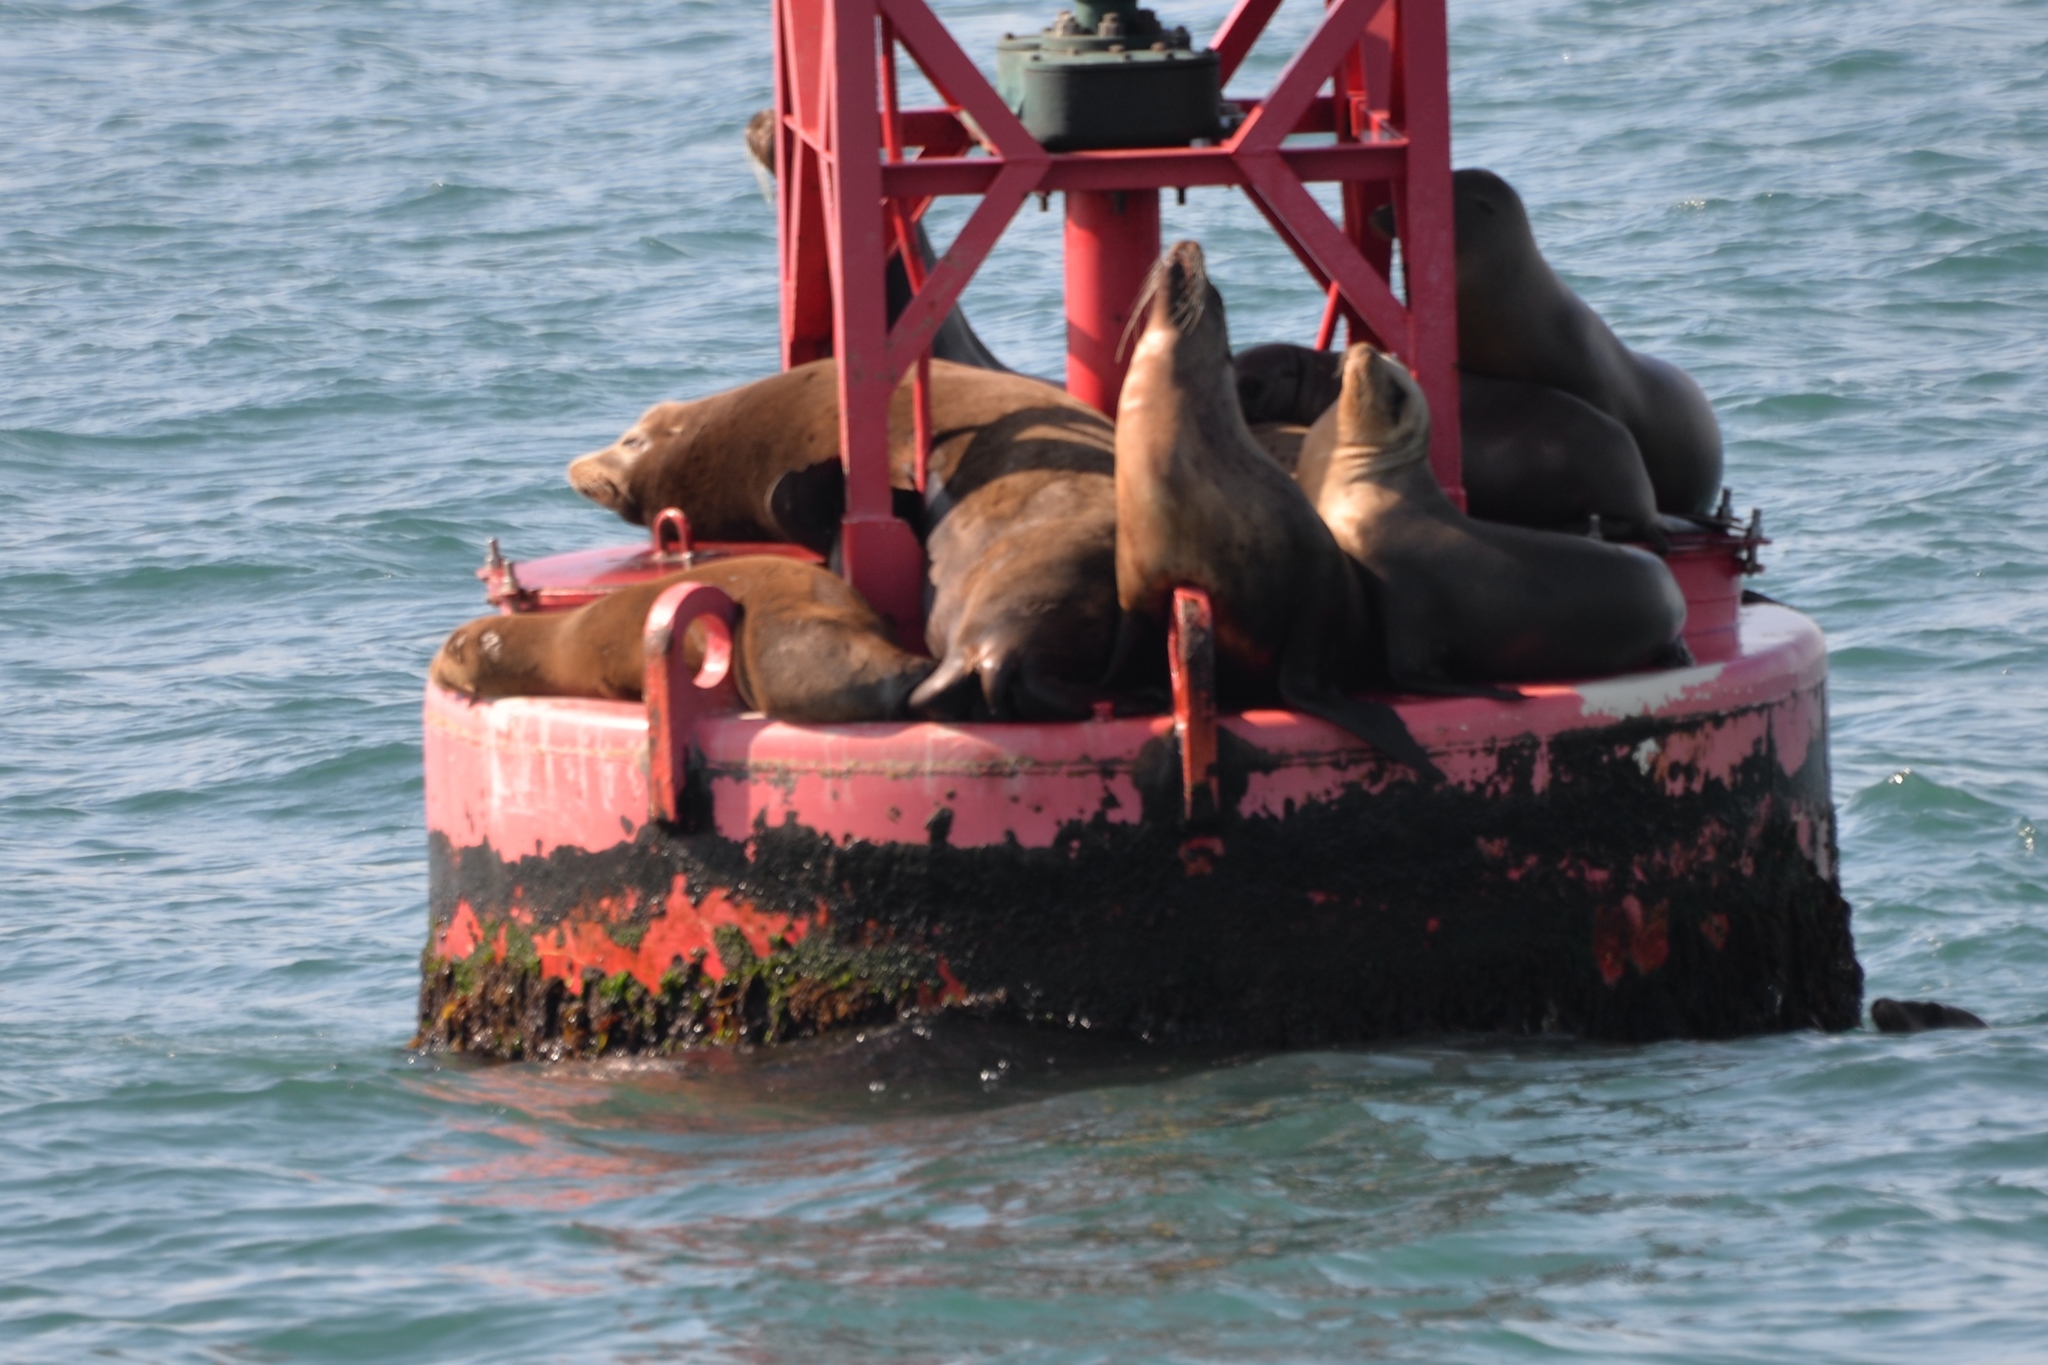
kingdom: Animalia
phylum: Chordata
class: Mammalia
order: Carnivora
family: Otariidae
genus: Zalophus
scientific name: Zalophus californianus
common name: California sea lion
